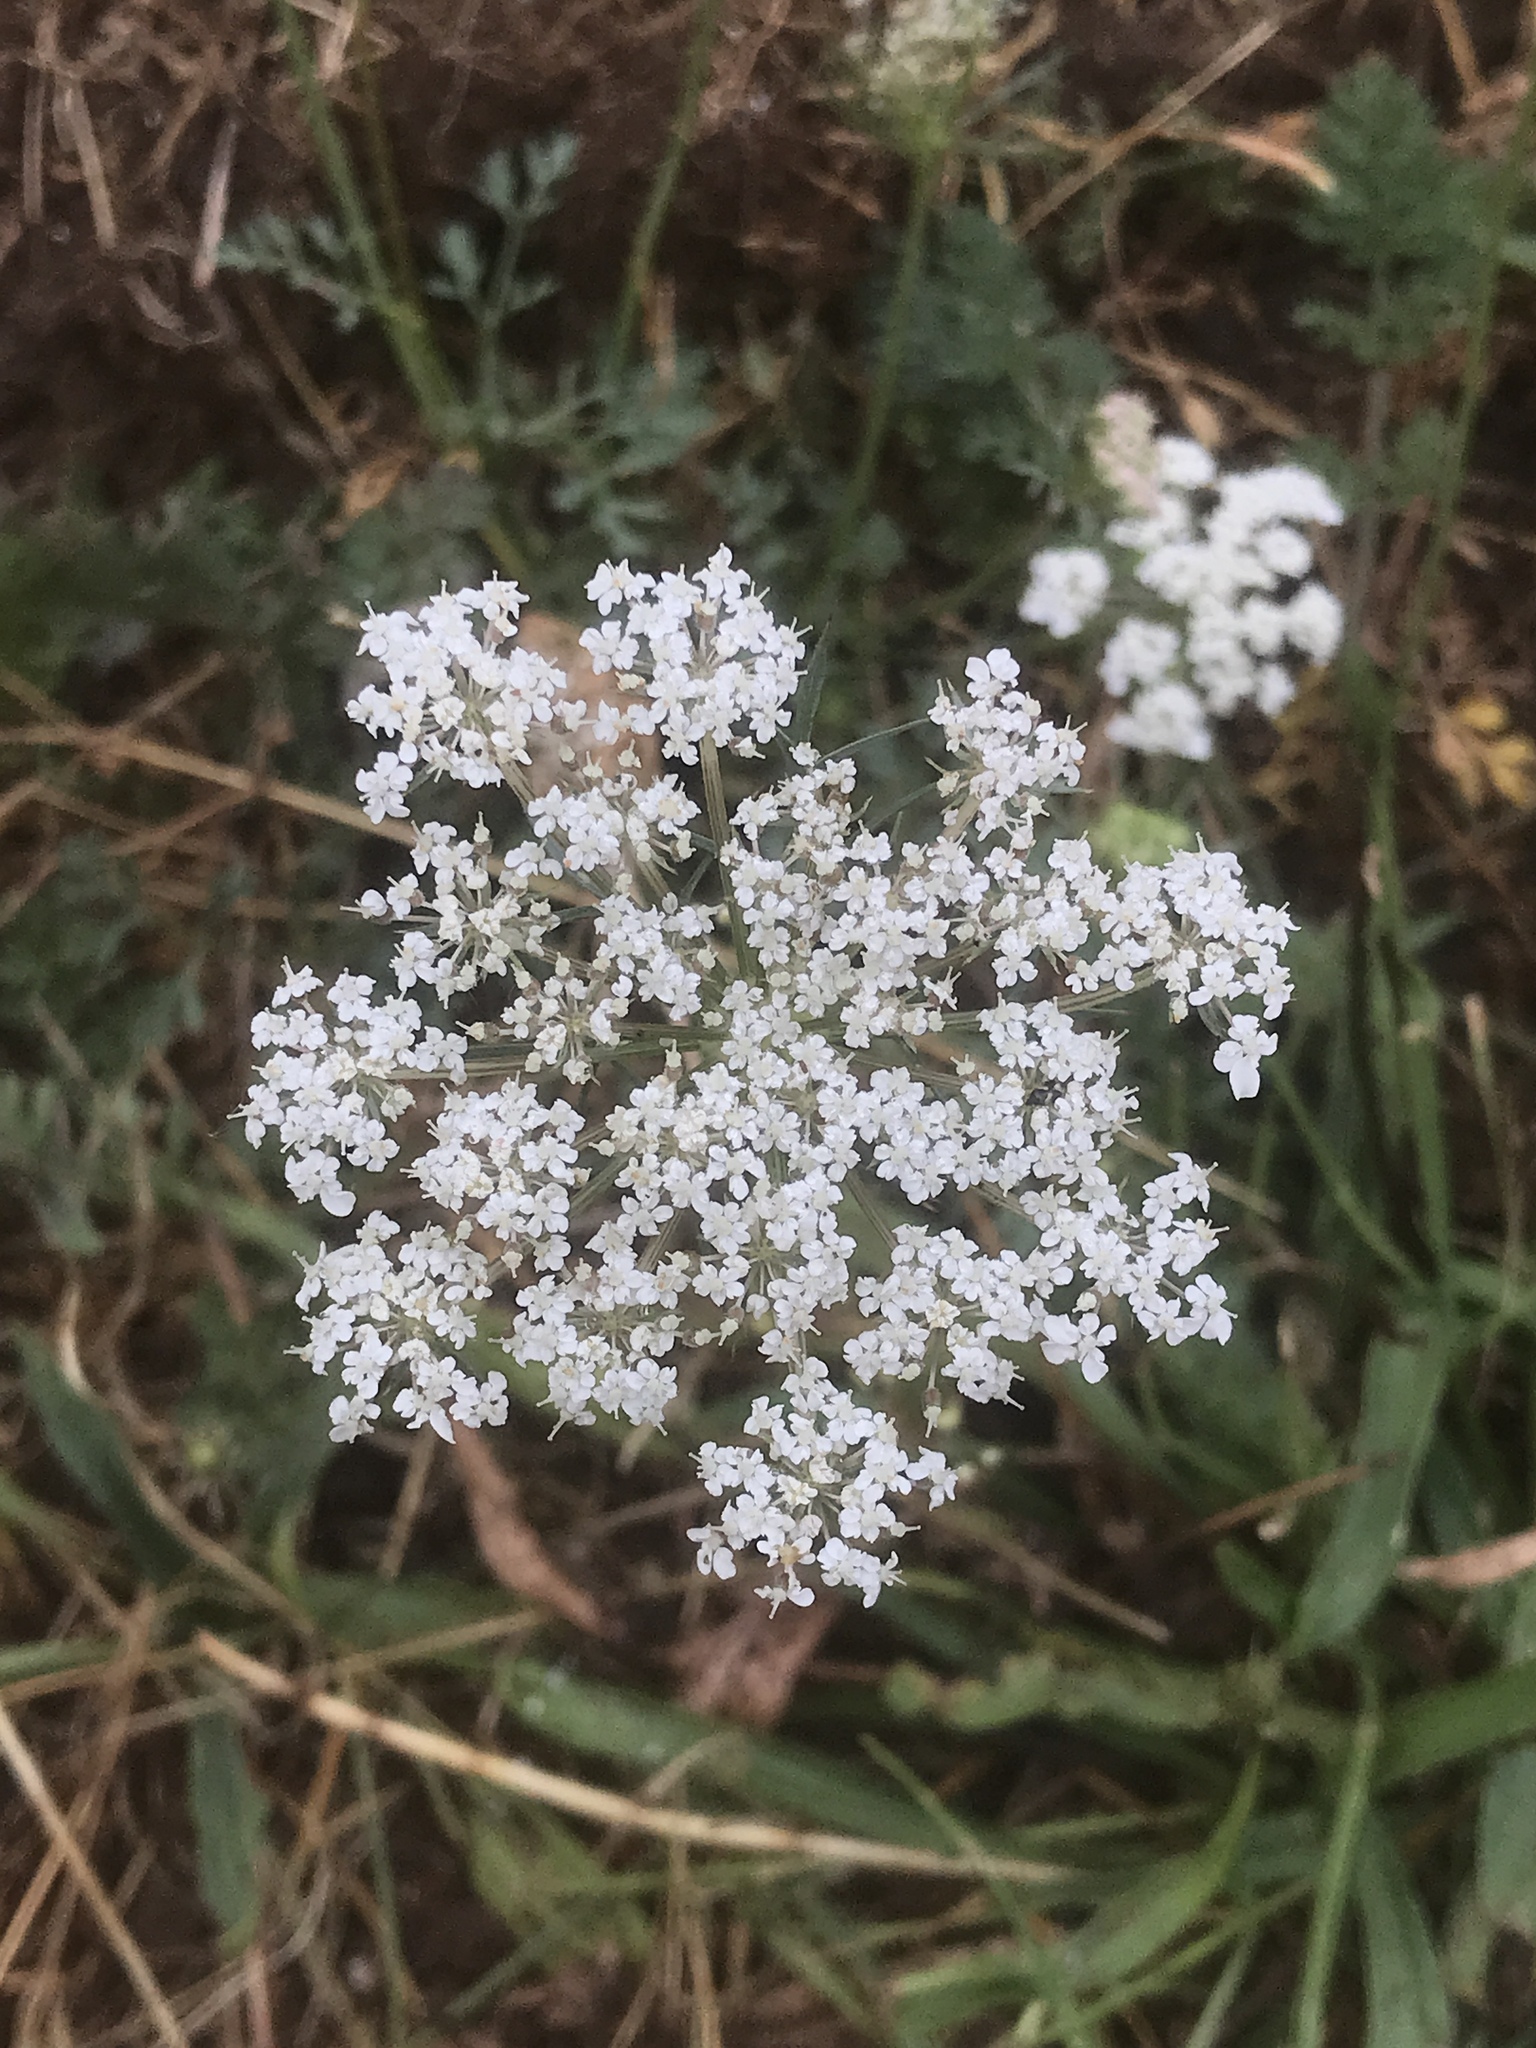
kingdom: Plantae
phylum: Tracheophyta
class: Magnoliopsida
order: Apiales
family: Apiaceae
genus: Daucus
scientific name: Daucus carota
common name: Wild carrot
